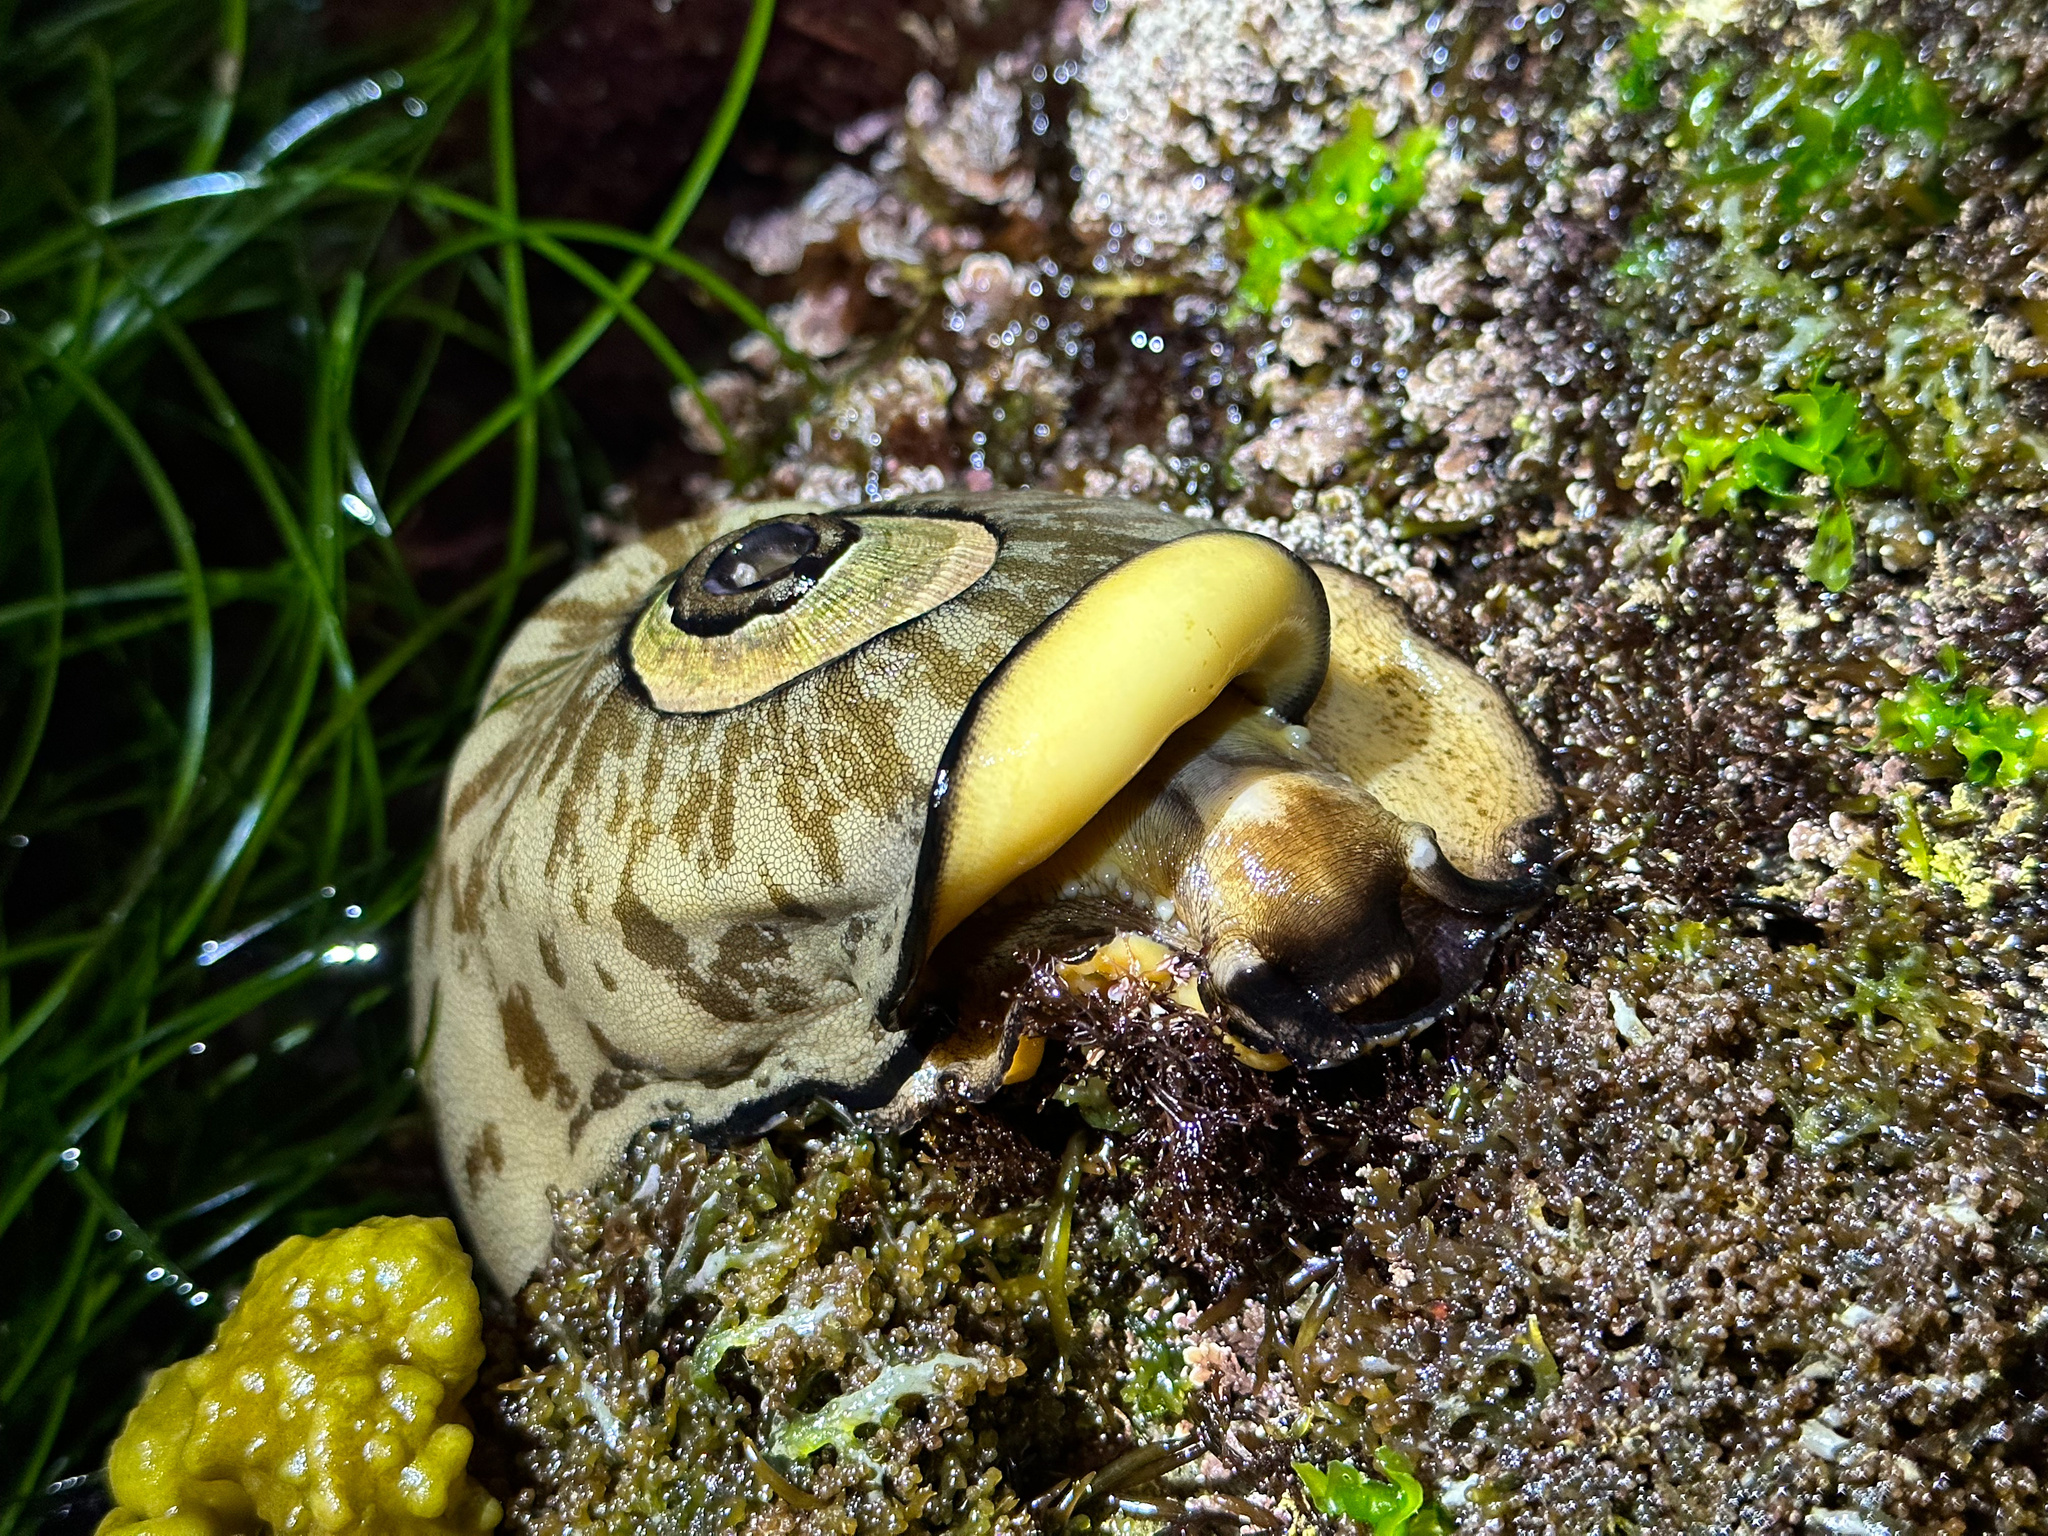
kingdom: Animalia
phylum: Mollusca
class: Gastropoda
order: Lepetellida
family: Fissurellidae
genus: Megathura
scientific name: Megathura crenulata
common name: Giant keyhole limpet
